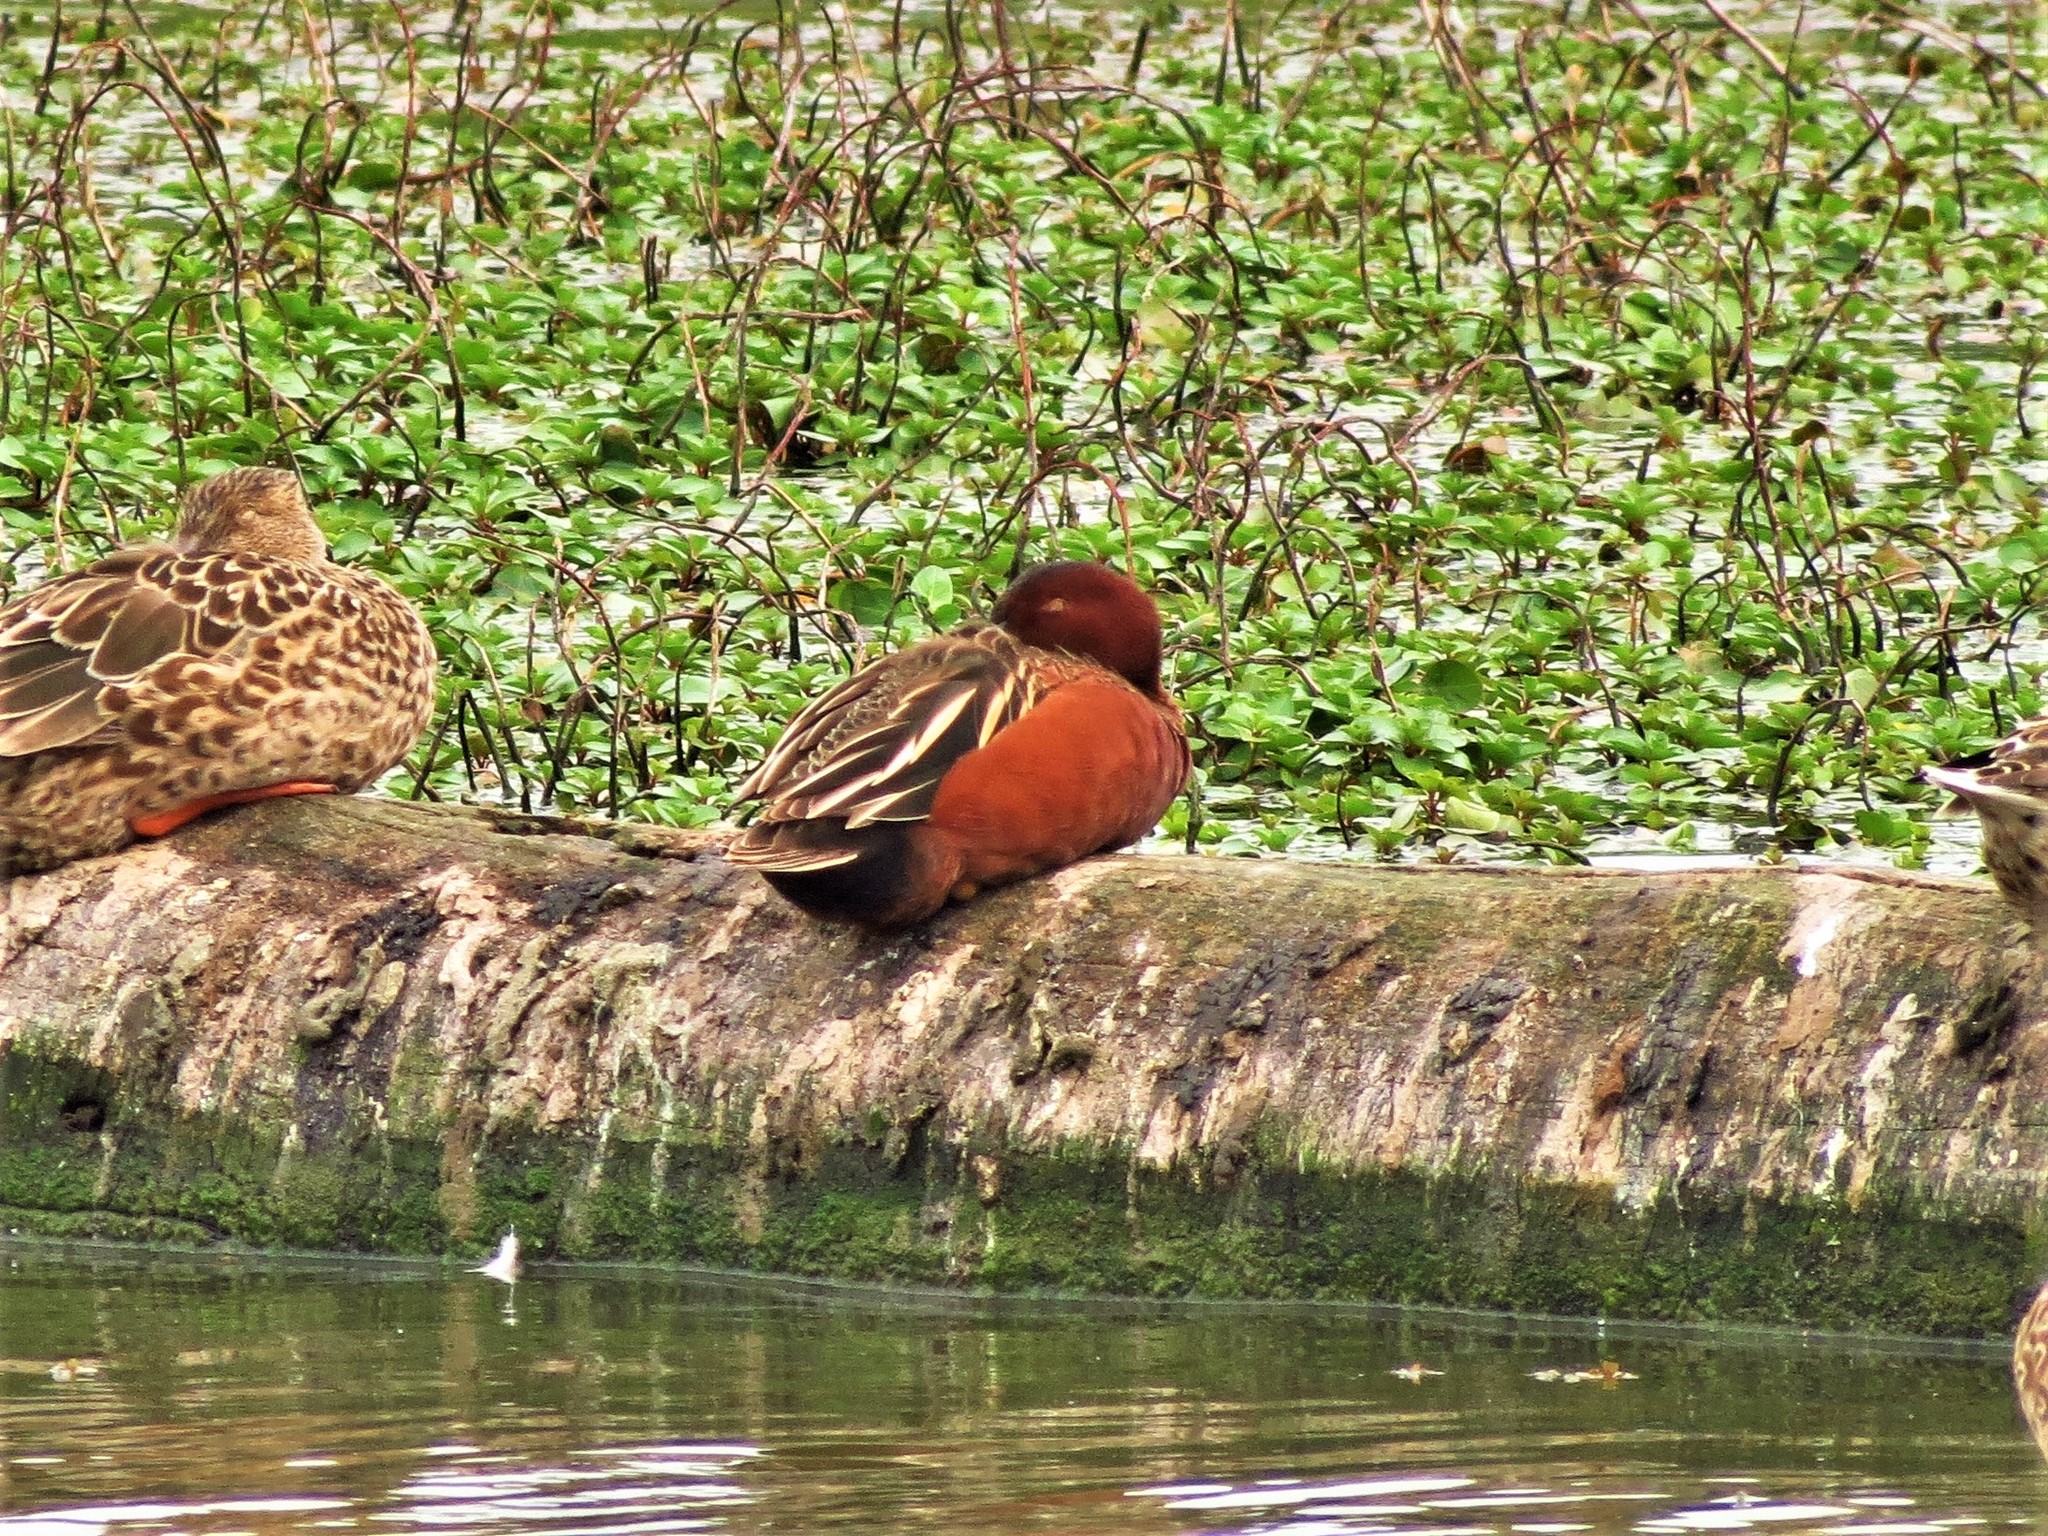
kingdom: Animalia
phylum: Chordata
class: Aves
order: Anseriformes
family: Anatidae
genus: Spatula
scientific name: Spatula cyanoptera
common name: Cinnamon teal
